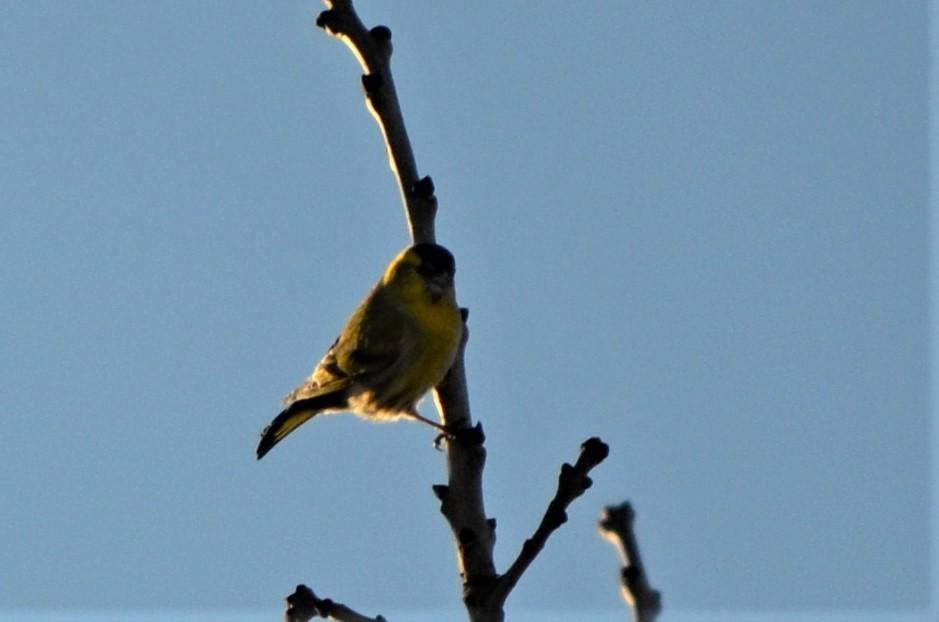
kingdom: Animalia
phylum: Chordata
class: Aves
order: Passeriformes
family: Fringillidae
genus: Spinus
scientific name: Spinus spinus
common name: Eurasian siskin
